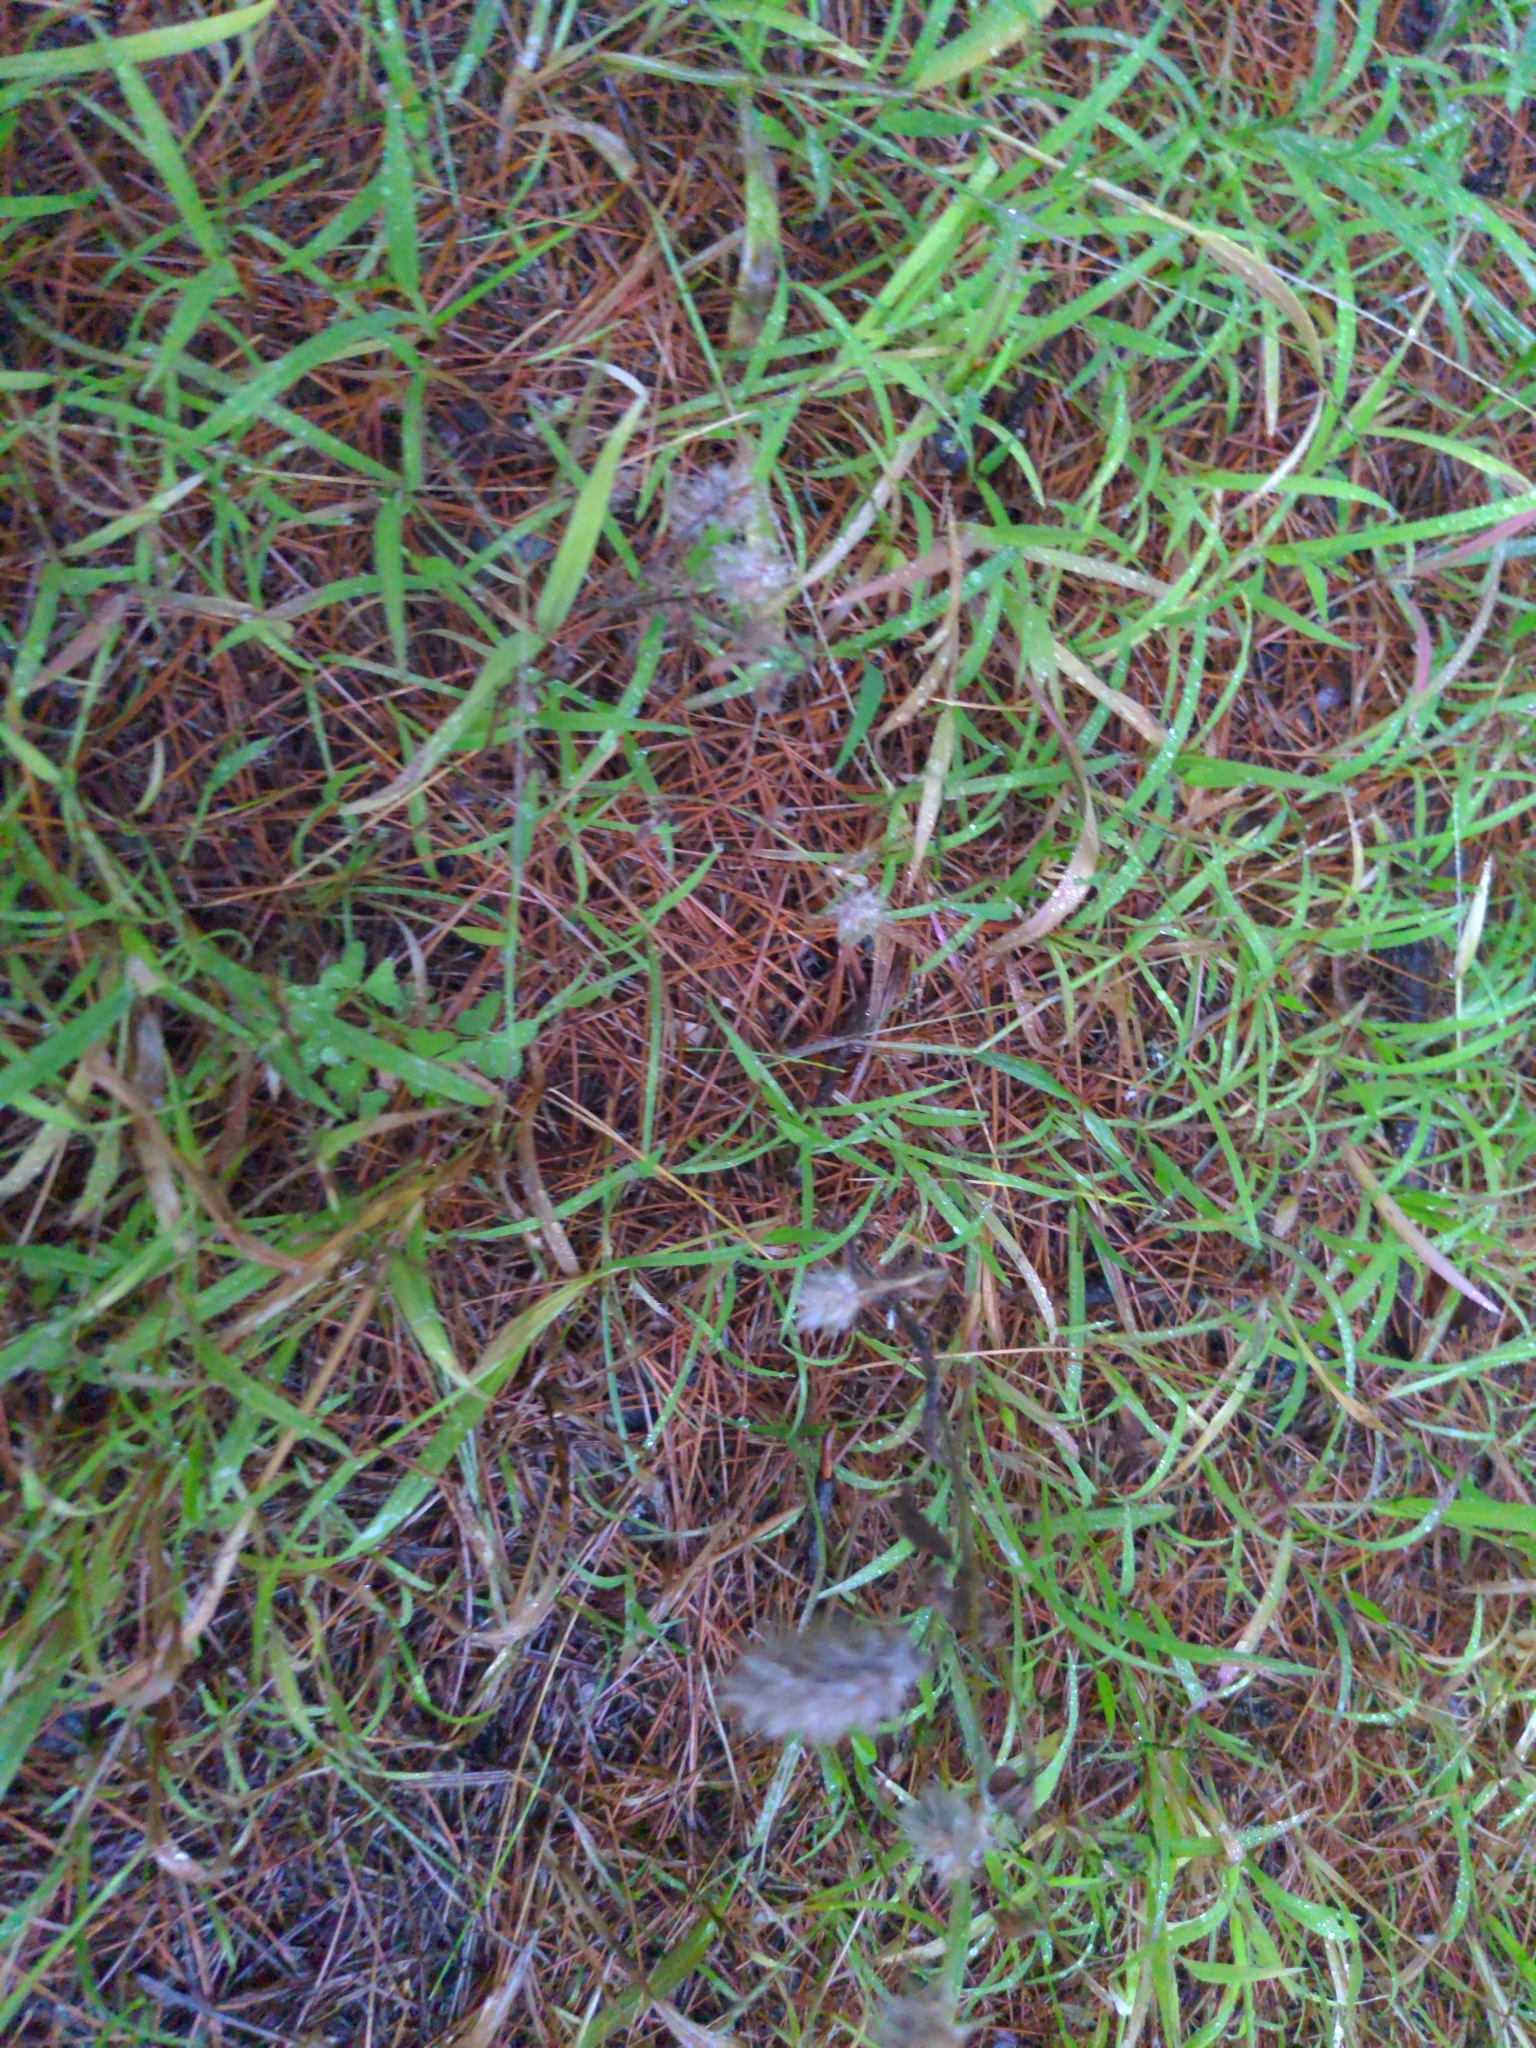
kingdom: Plantae
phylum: Tracheophyta
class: Magnoliopsida
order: Fabales
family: Fabaceae
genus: Trifolium
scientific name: Trifolium arvense
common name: Hare's-foot clover
